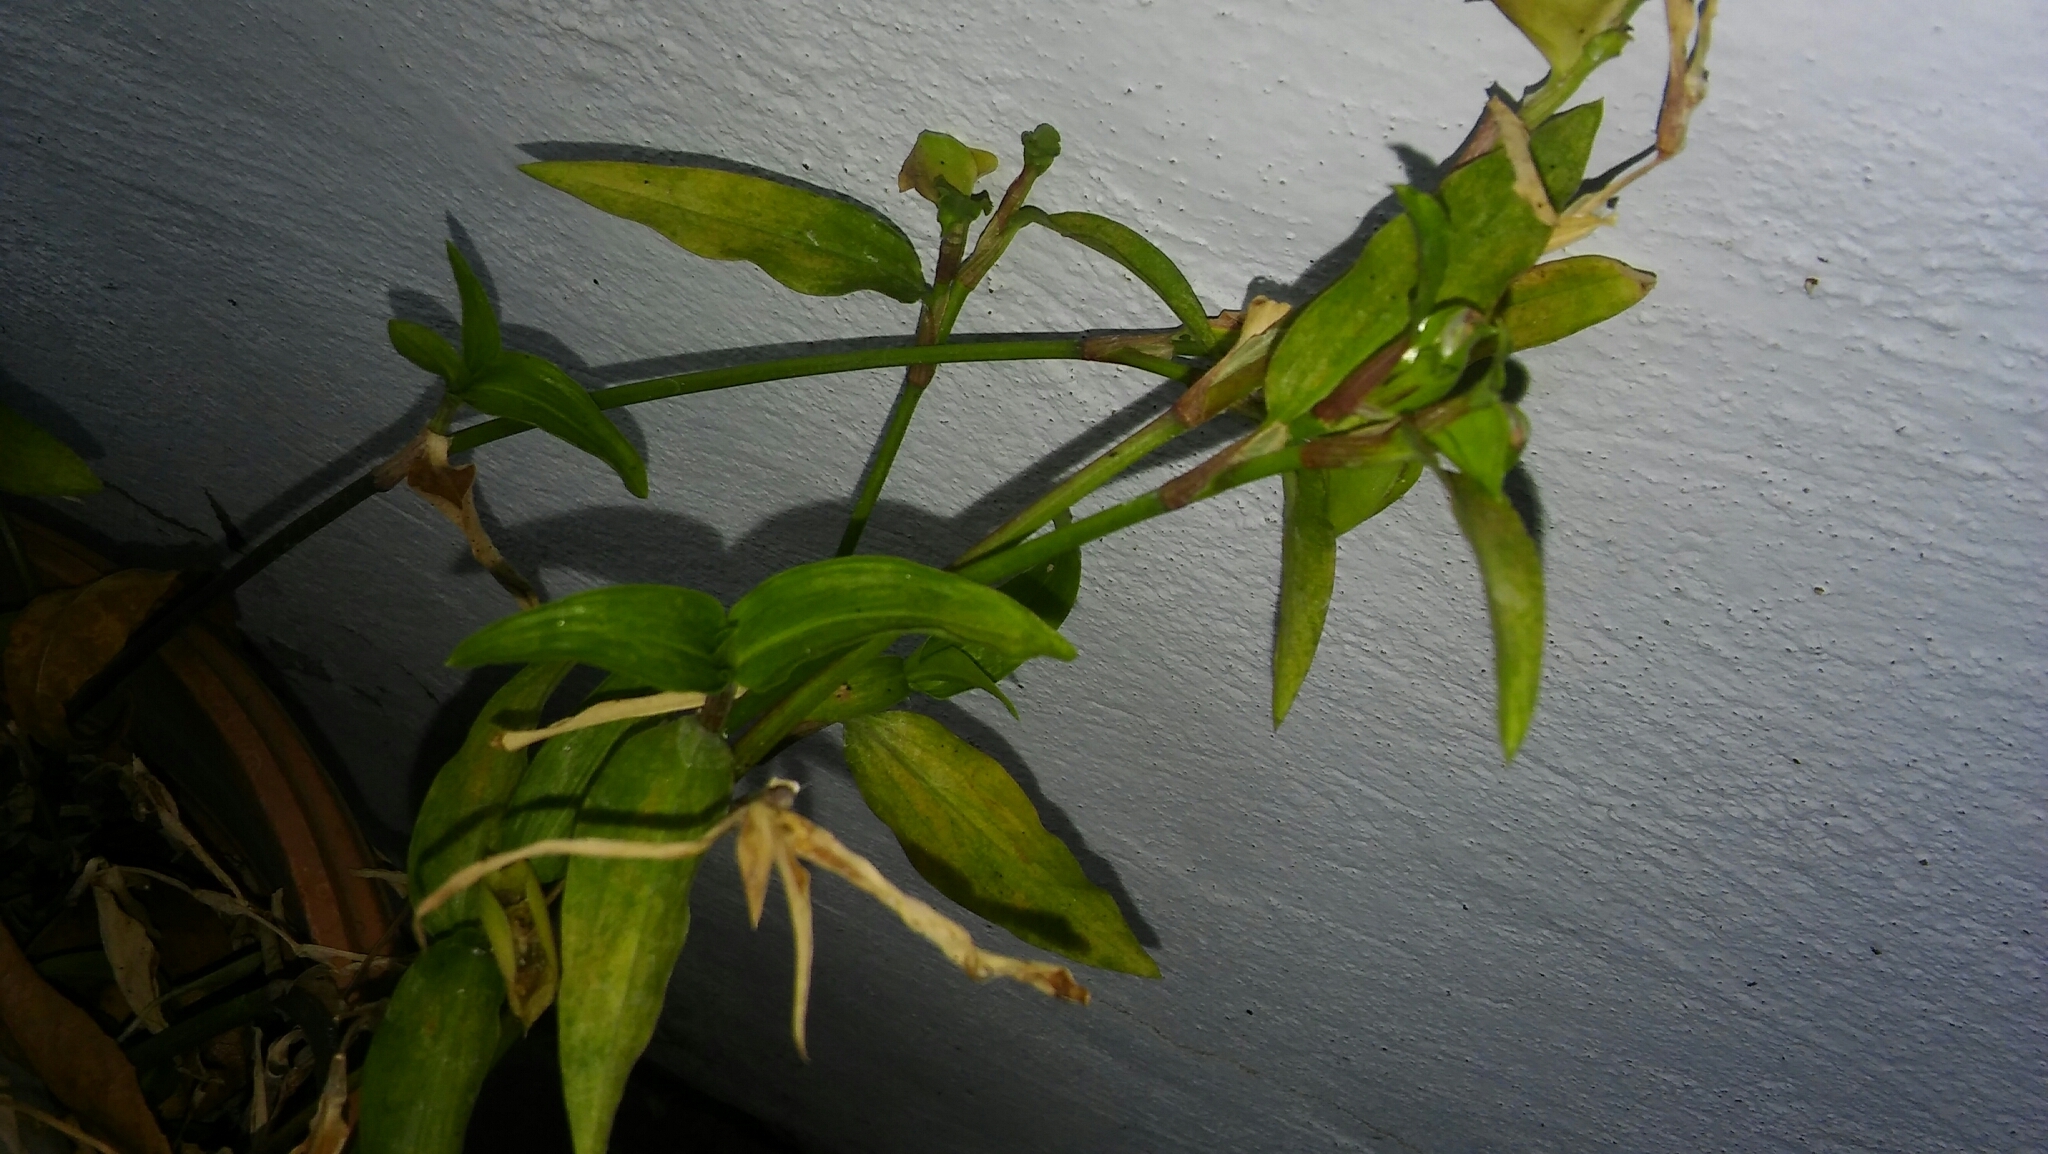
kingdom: Plantae
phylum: Tracheophyta
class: Liliopsida
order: Commelinales
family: Commelinaceae
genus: Commelina
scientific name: Commelina erecta
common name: Blousel blommetjie
